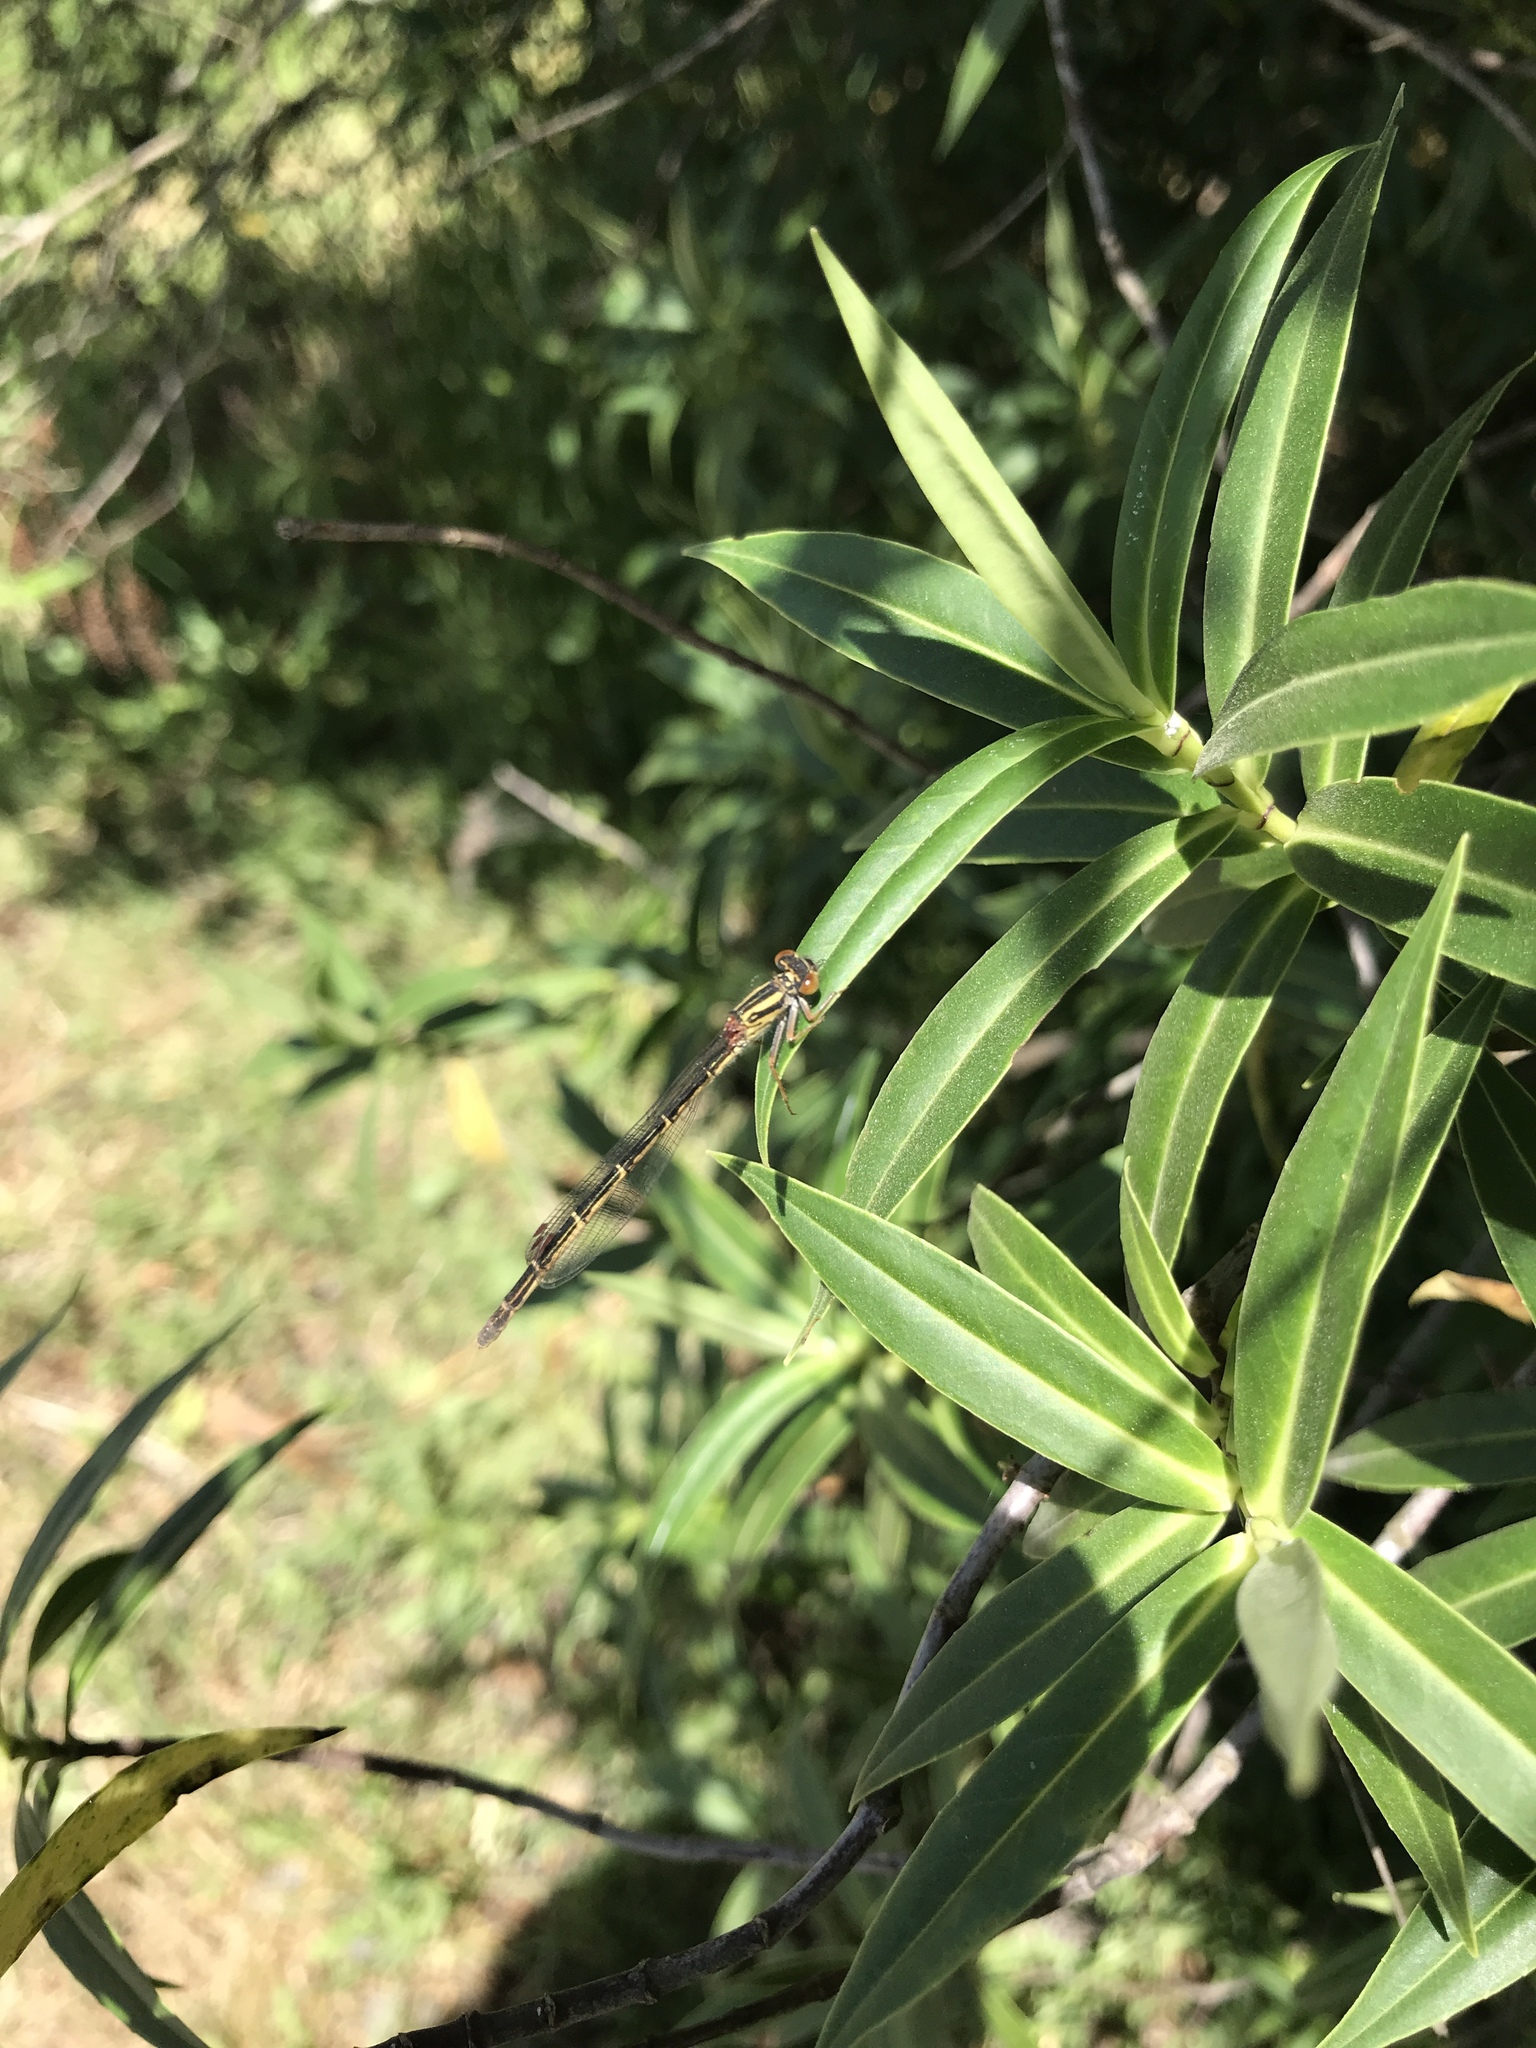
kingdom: Animalia
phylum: Arthropoda
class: Insecta
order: Odonata
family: Coenagrionidae
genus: Xanthocnemis
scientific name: Xanthocnemis zealandica
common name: Common redcoat damselfly
